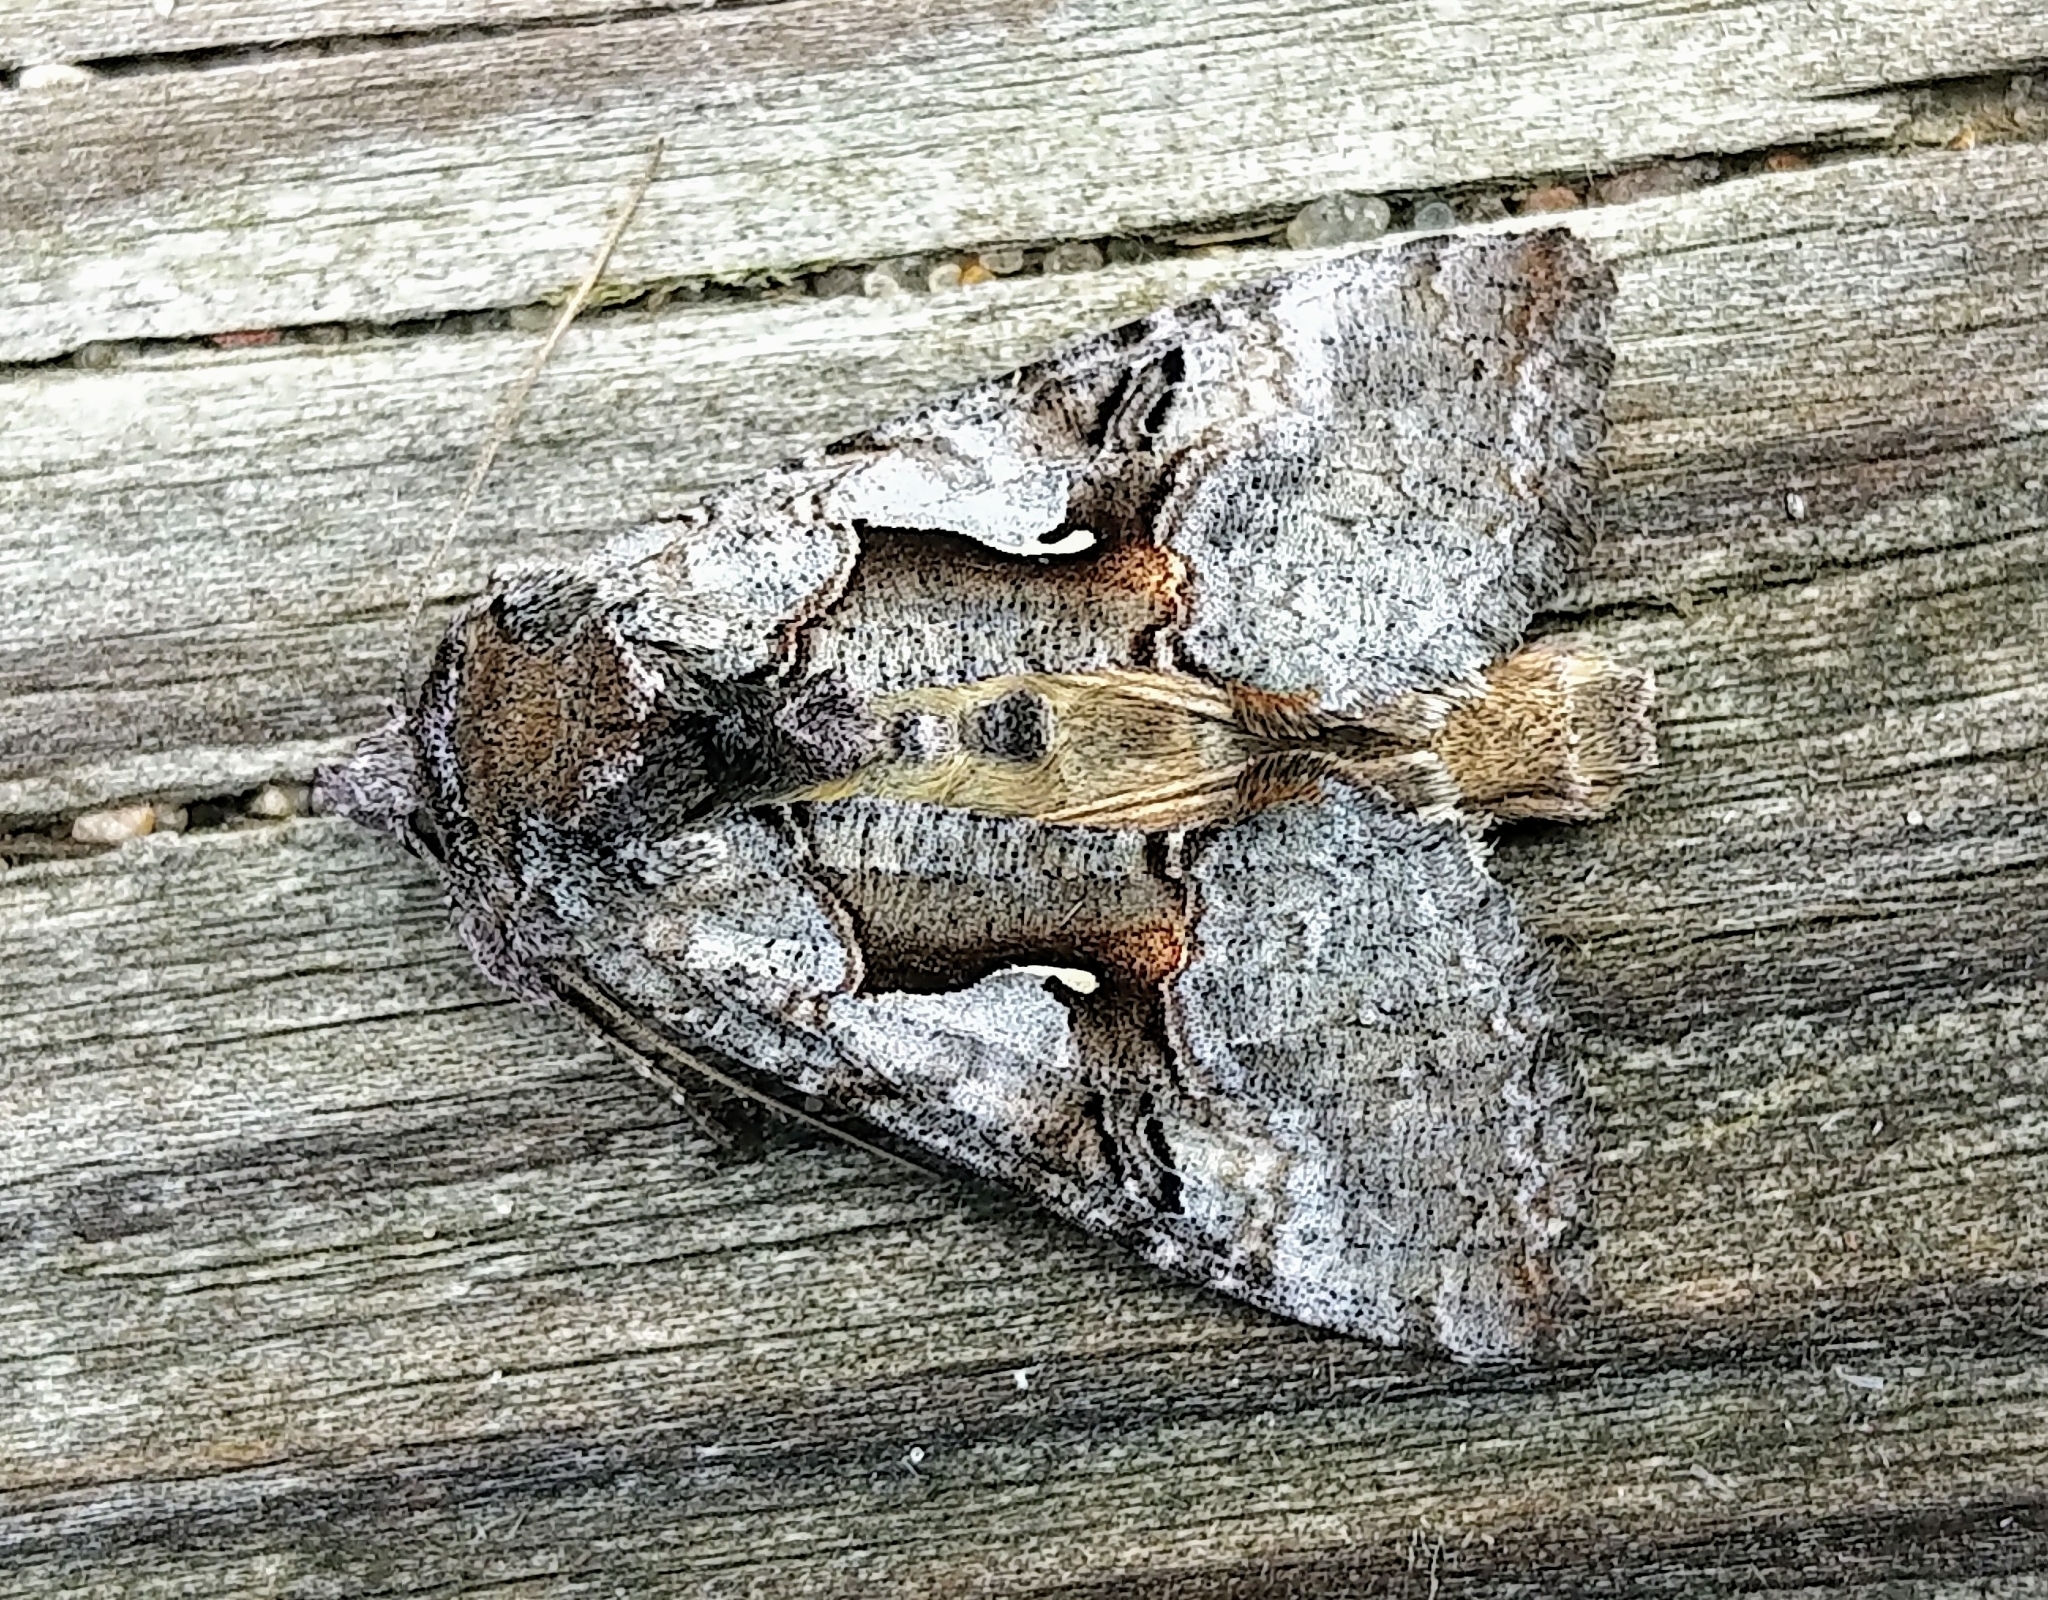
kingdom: Animalia
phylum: Arthropoda
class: Insecta
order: Lepidoptera
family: Noctuidae
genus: Syngrapha
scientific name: Syngrapha epigaea
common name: Epigaea looper moth
